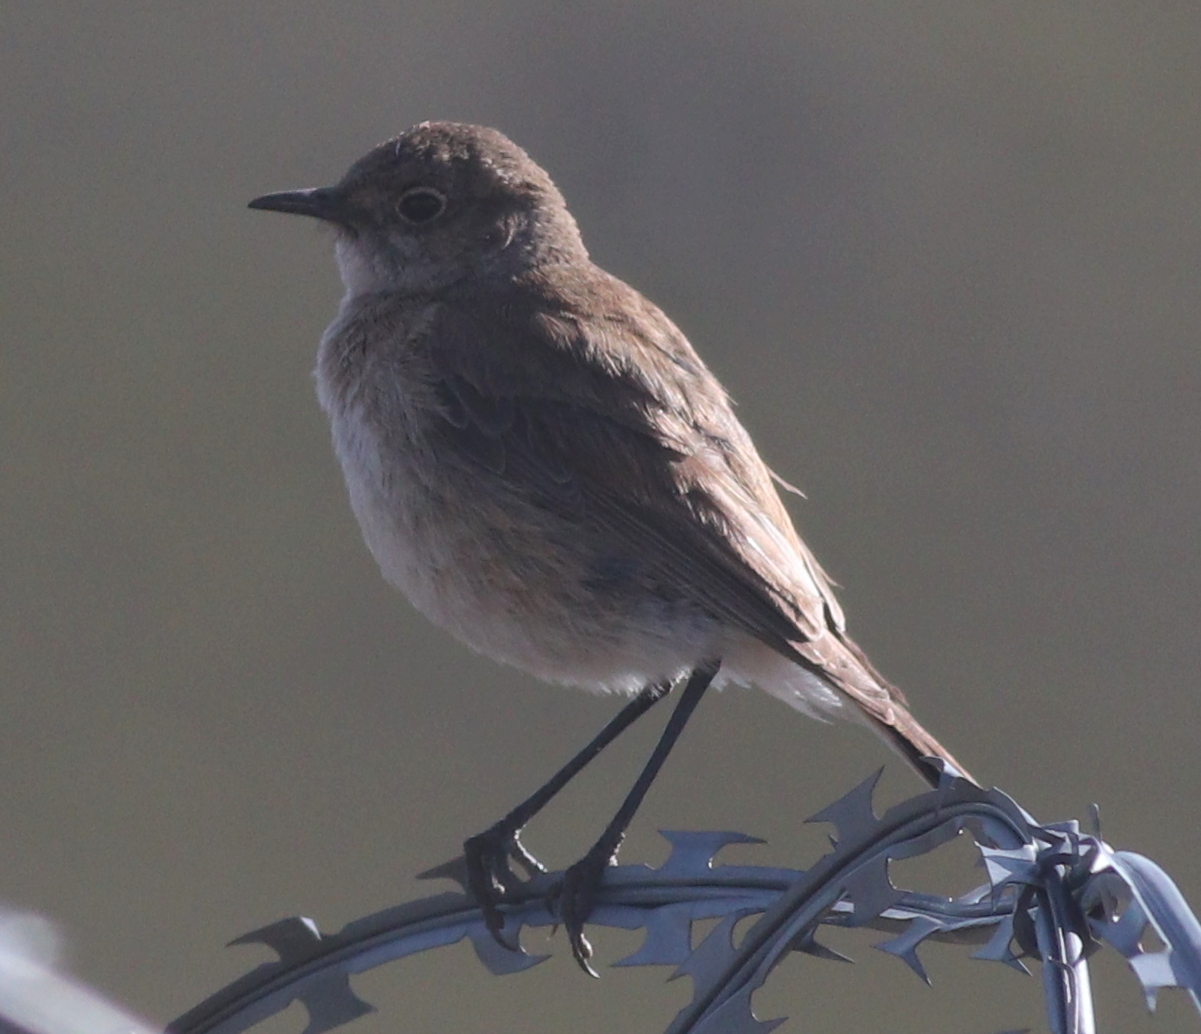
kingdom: Animalia
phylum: Chordata
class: Aves
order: Passeriformes
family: Muscicapidae
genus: Emarginata
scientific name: Emarginata sinuata
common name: Sickle-winged chat
